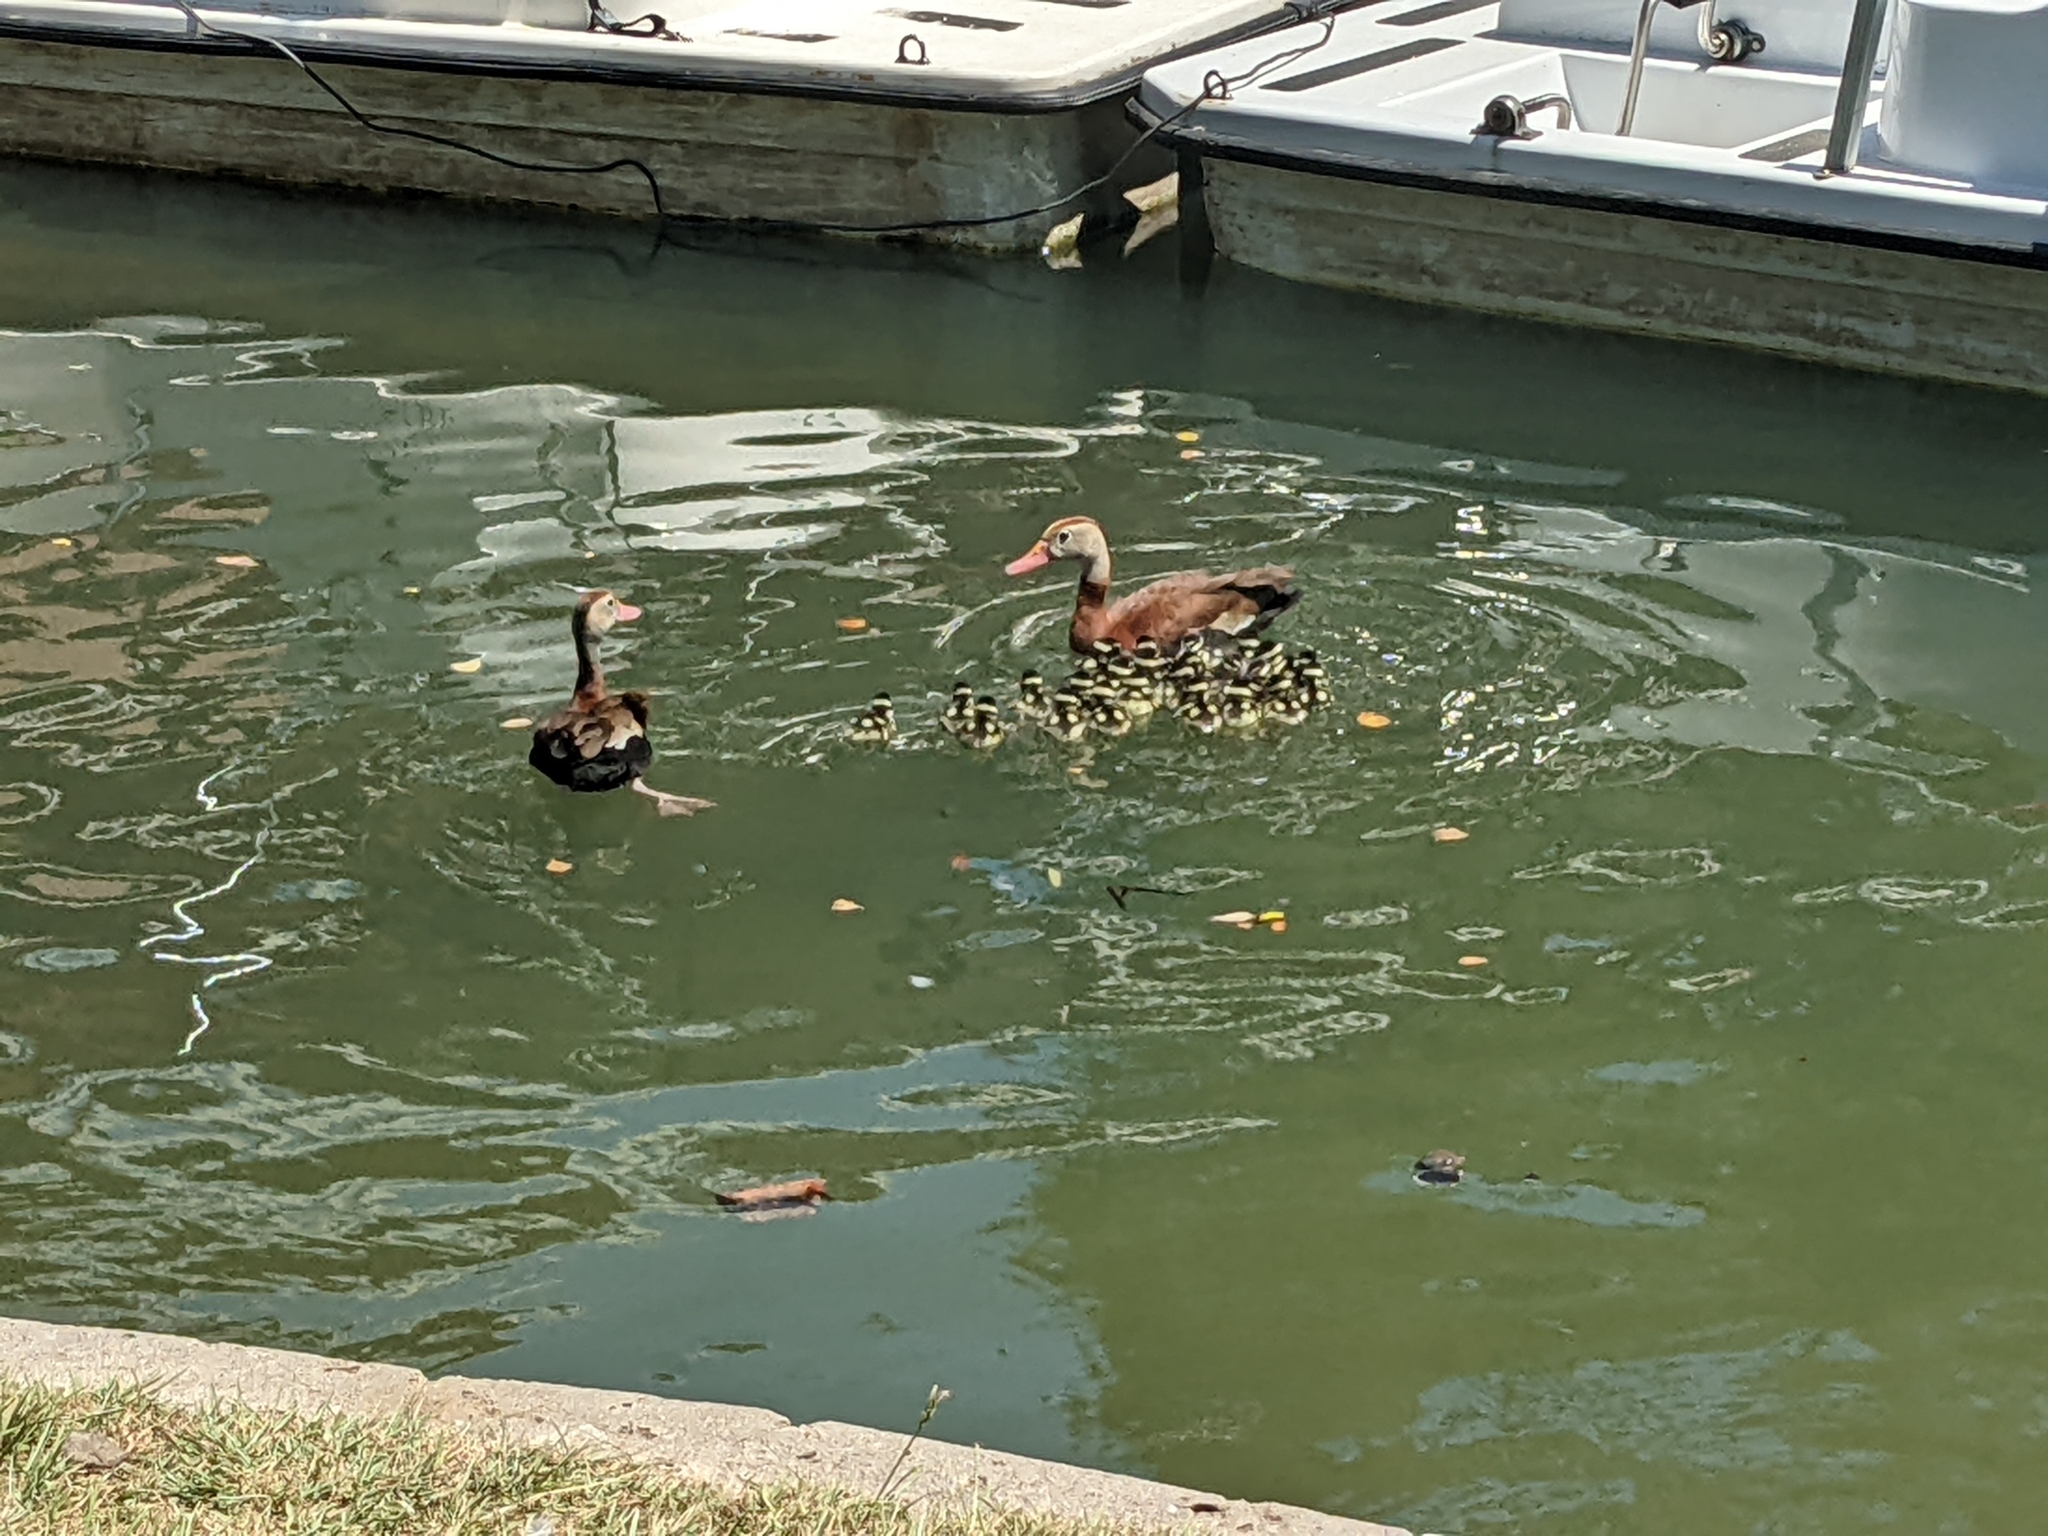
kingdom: Animalia
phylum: Chordata
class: Aves
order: Anseriformes
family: Anatidae
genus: Dendrocygna
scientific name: Dendrocygna autumnalis
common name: Black-bellied whistling duck
